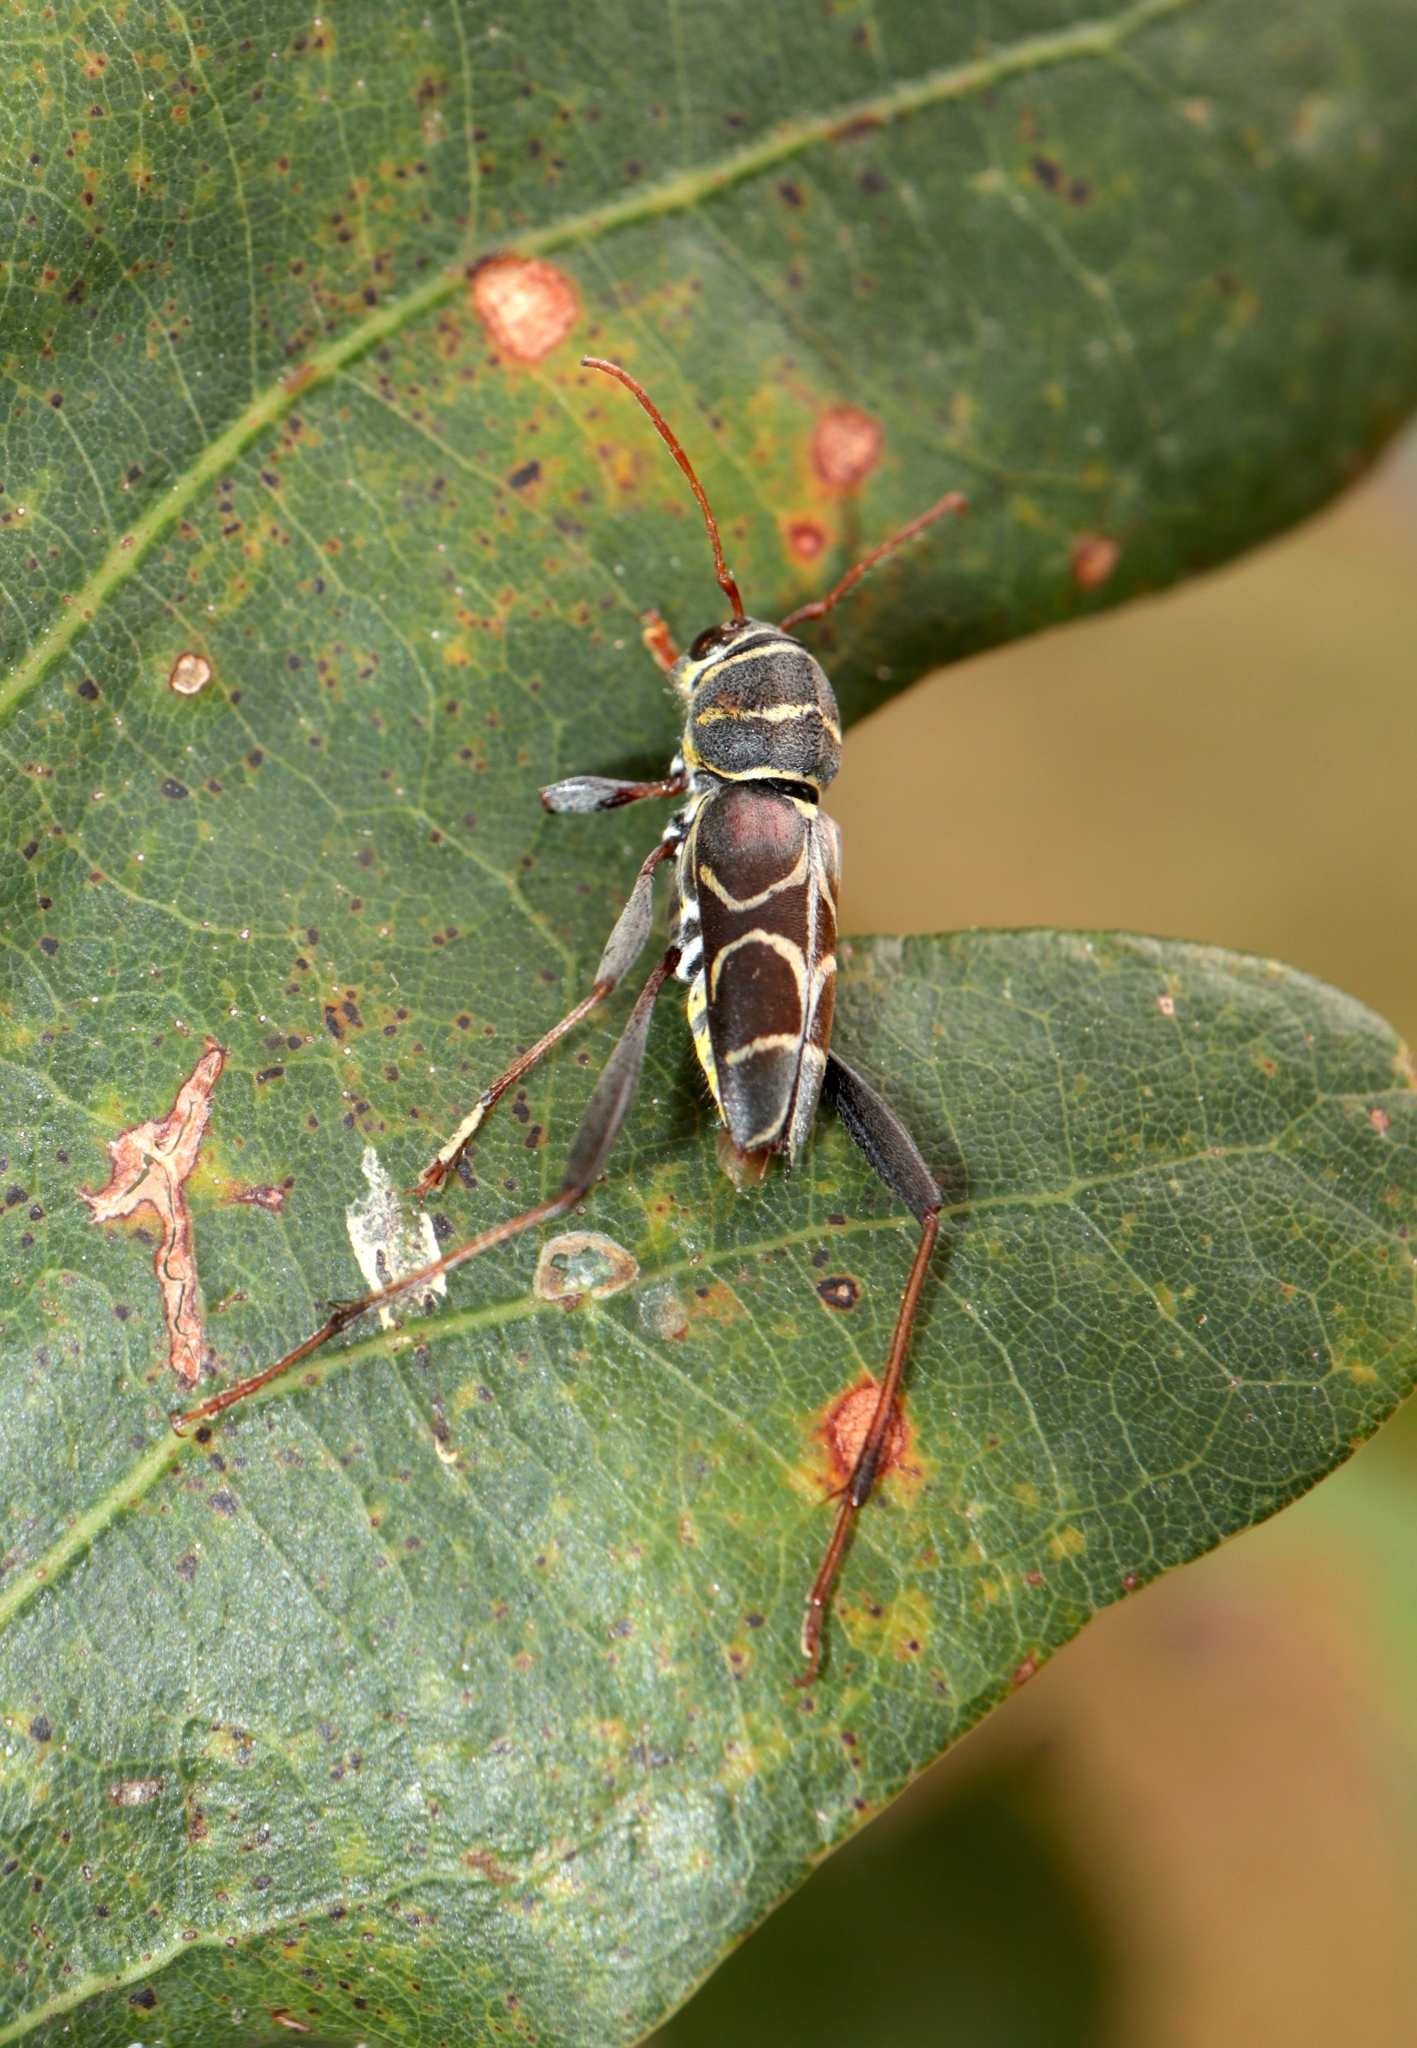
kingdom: Animalia
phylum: Arthropoda
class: Insecta
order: Coleoptera
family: Cerambycidae
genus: Neoclytus
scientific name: Neoclytus scutellaris
